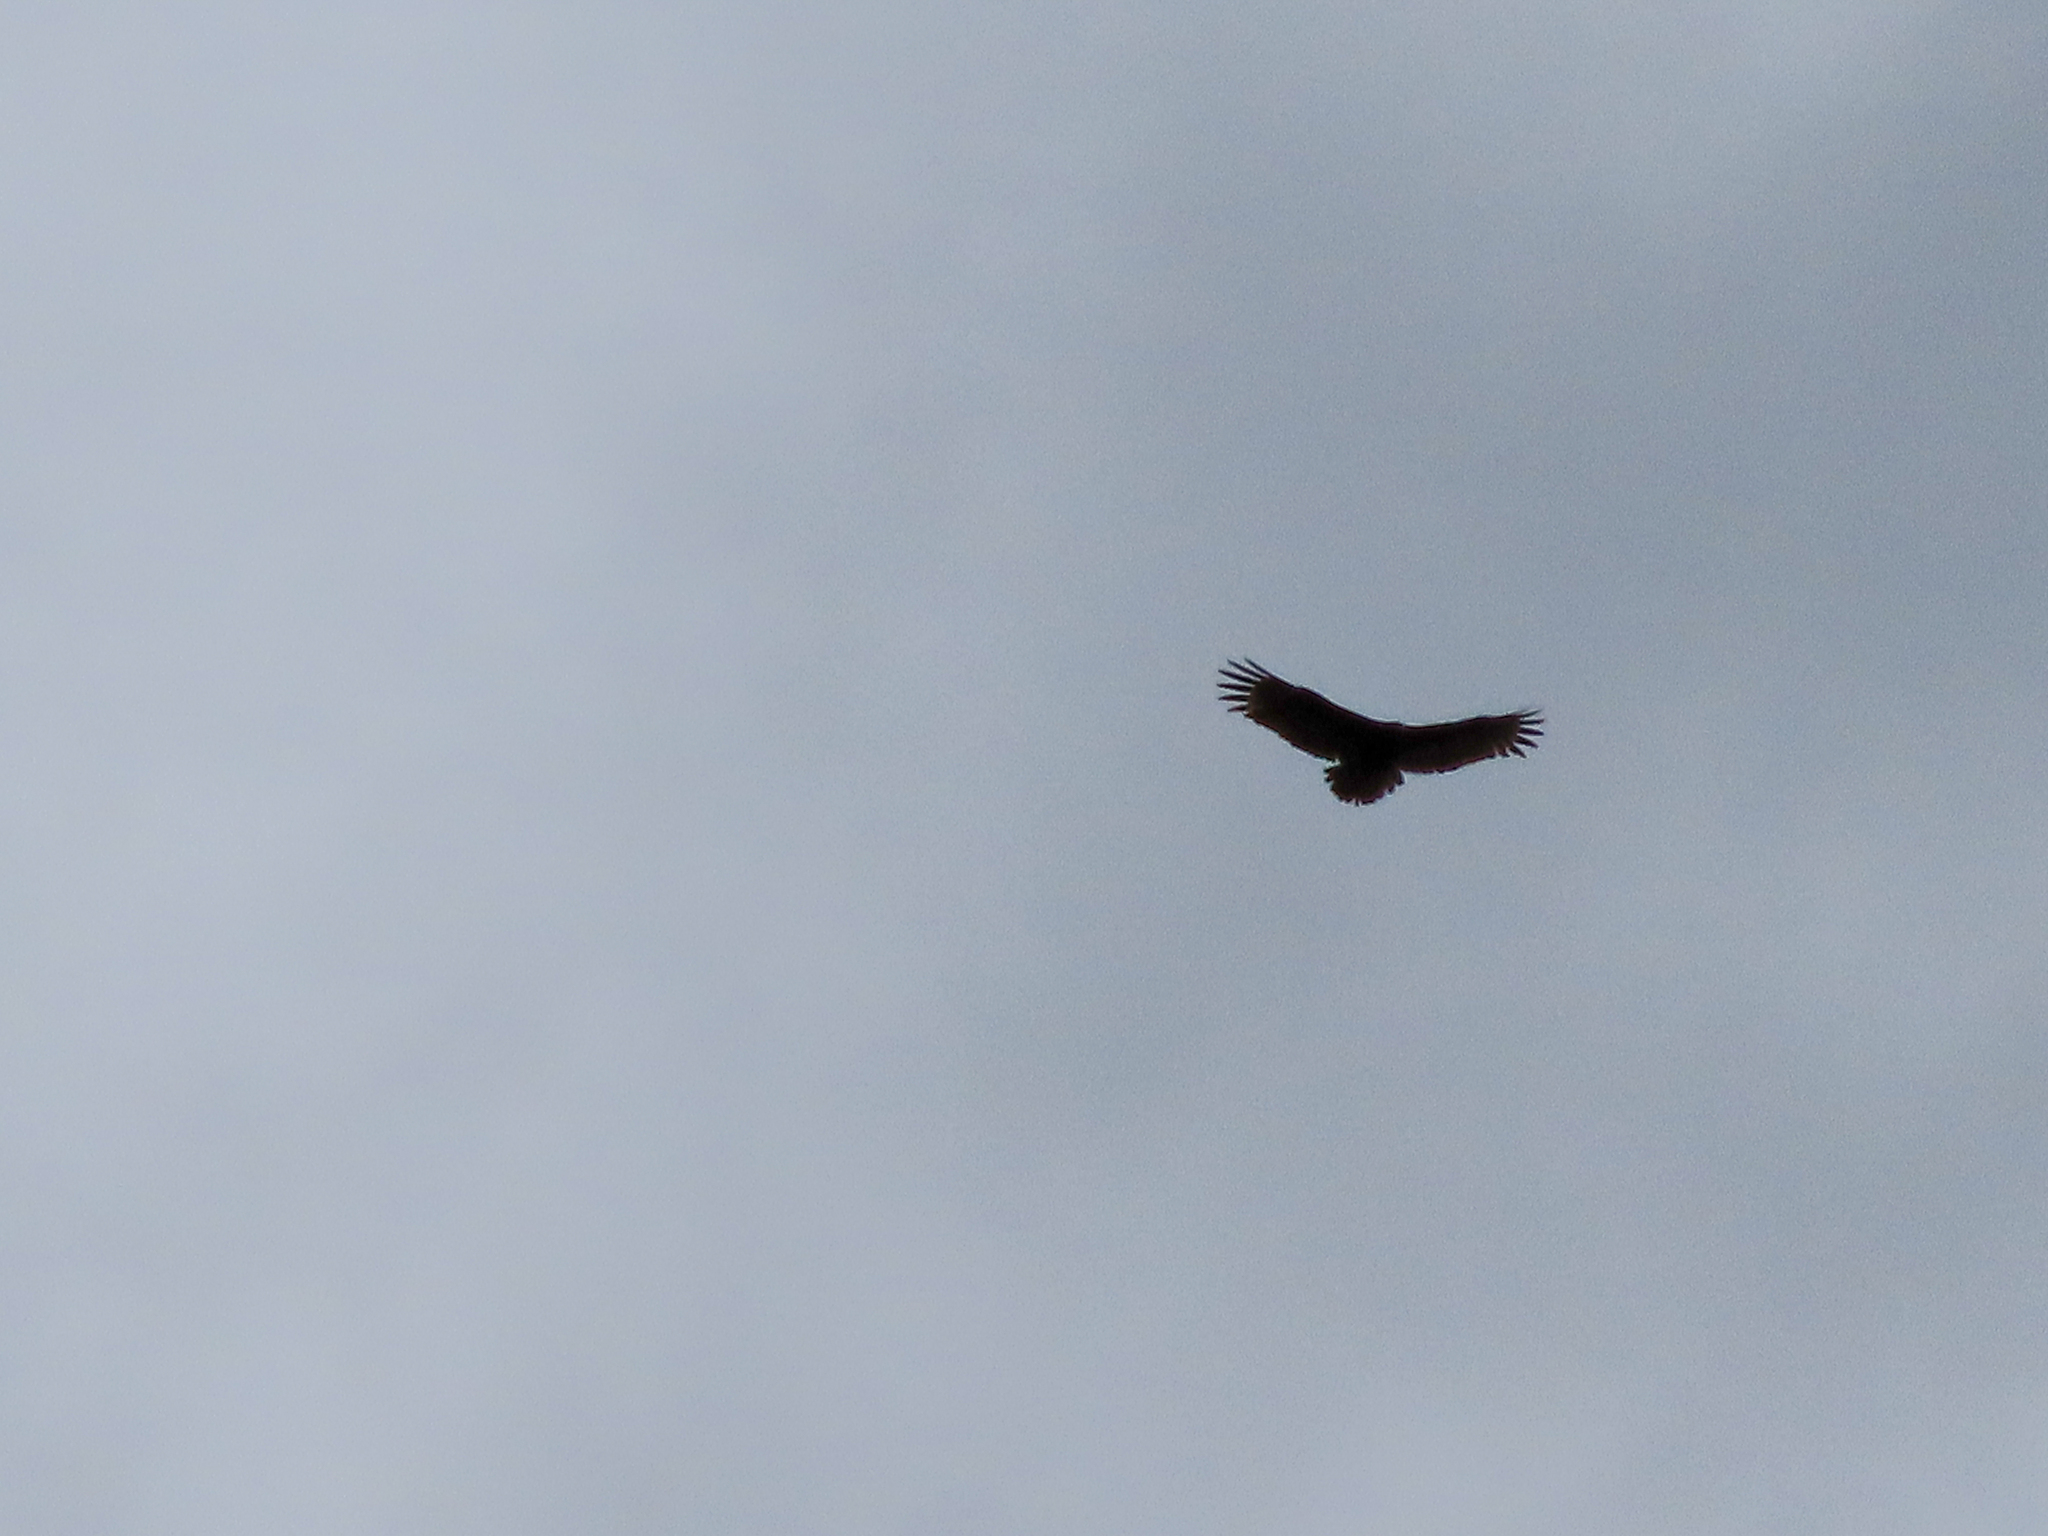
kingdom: Animalia
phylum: Chordata
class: Aves
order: Accipitriformes
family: Cathartidae
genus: Cathartes
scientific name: Cathartes aura
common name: Turkey vulture
